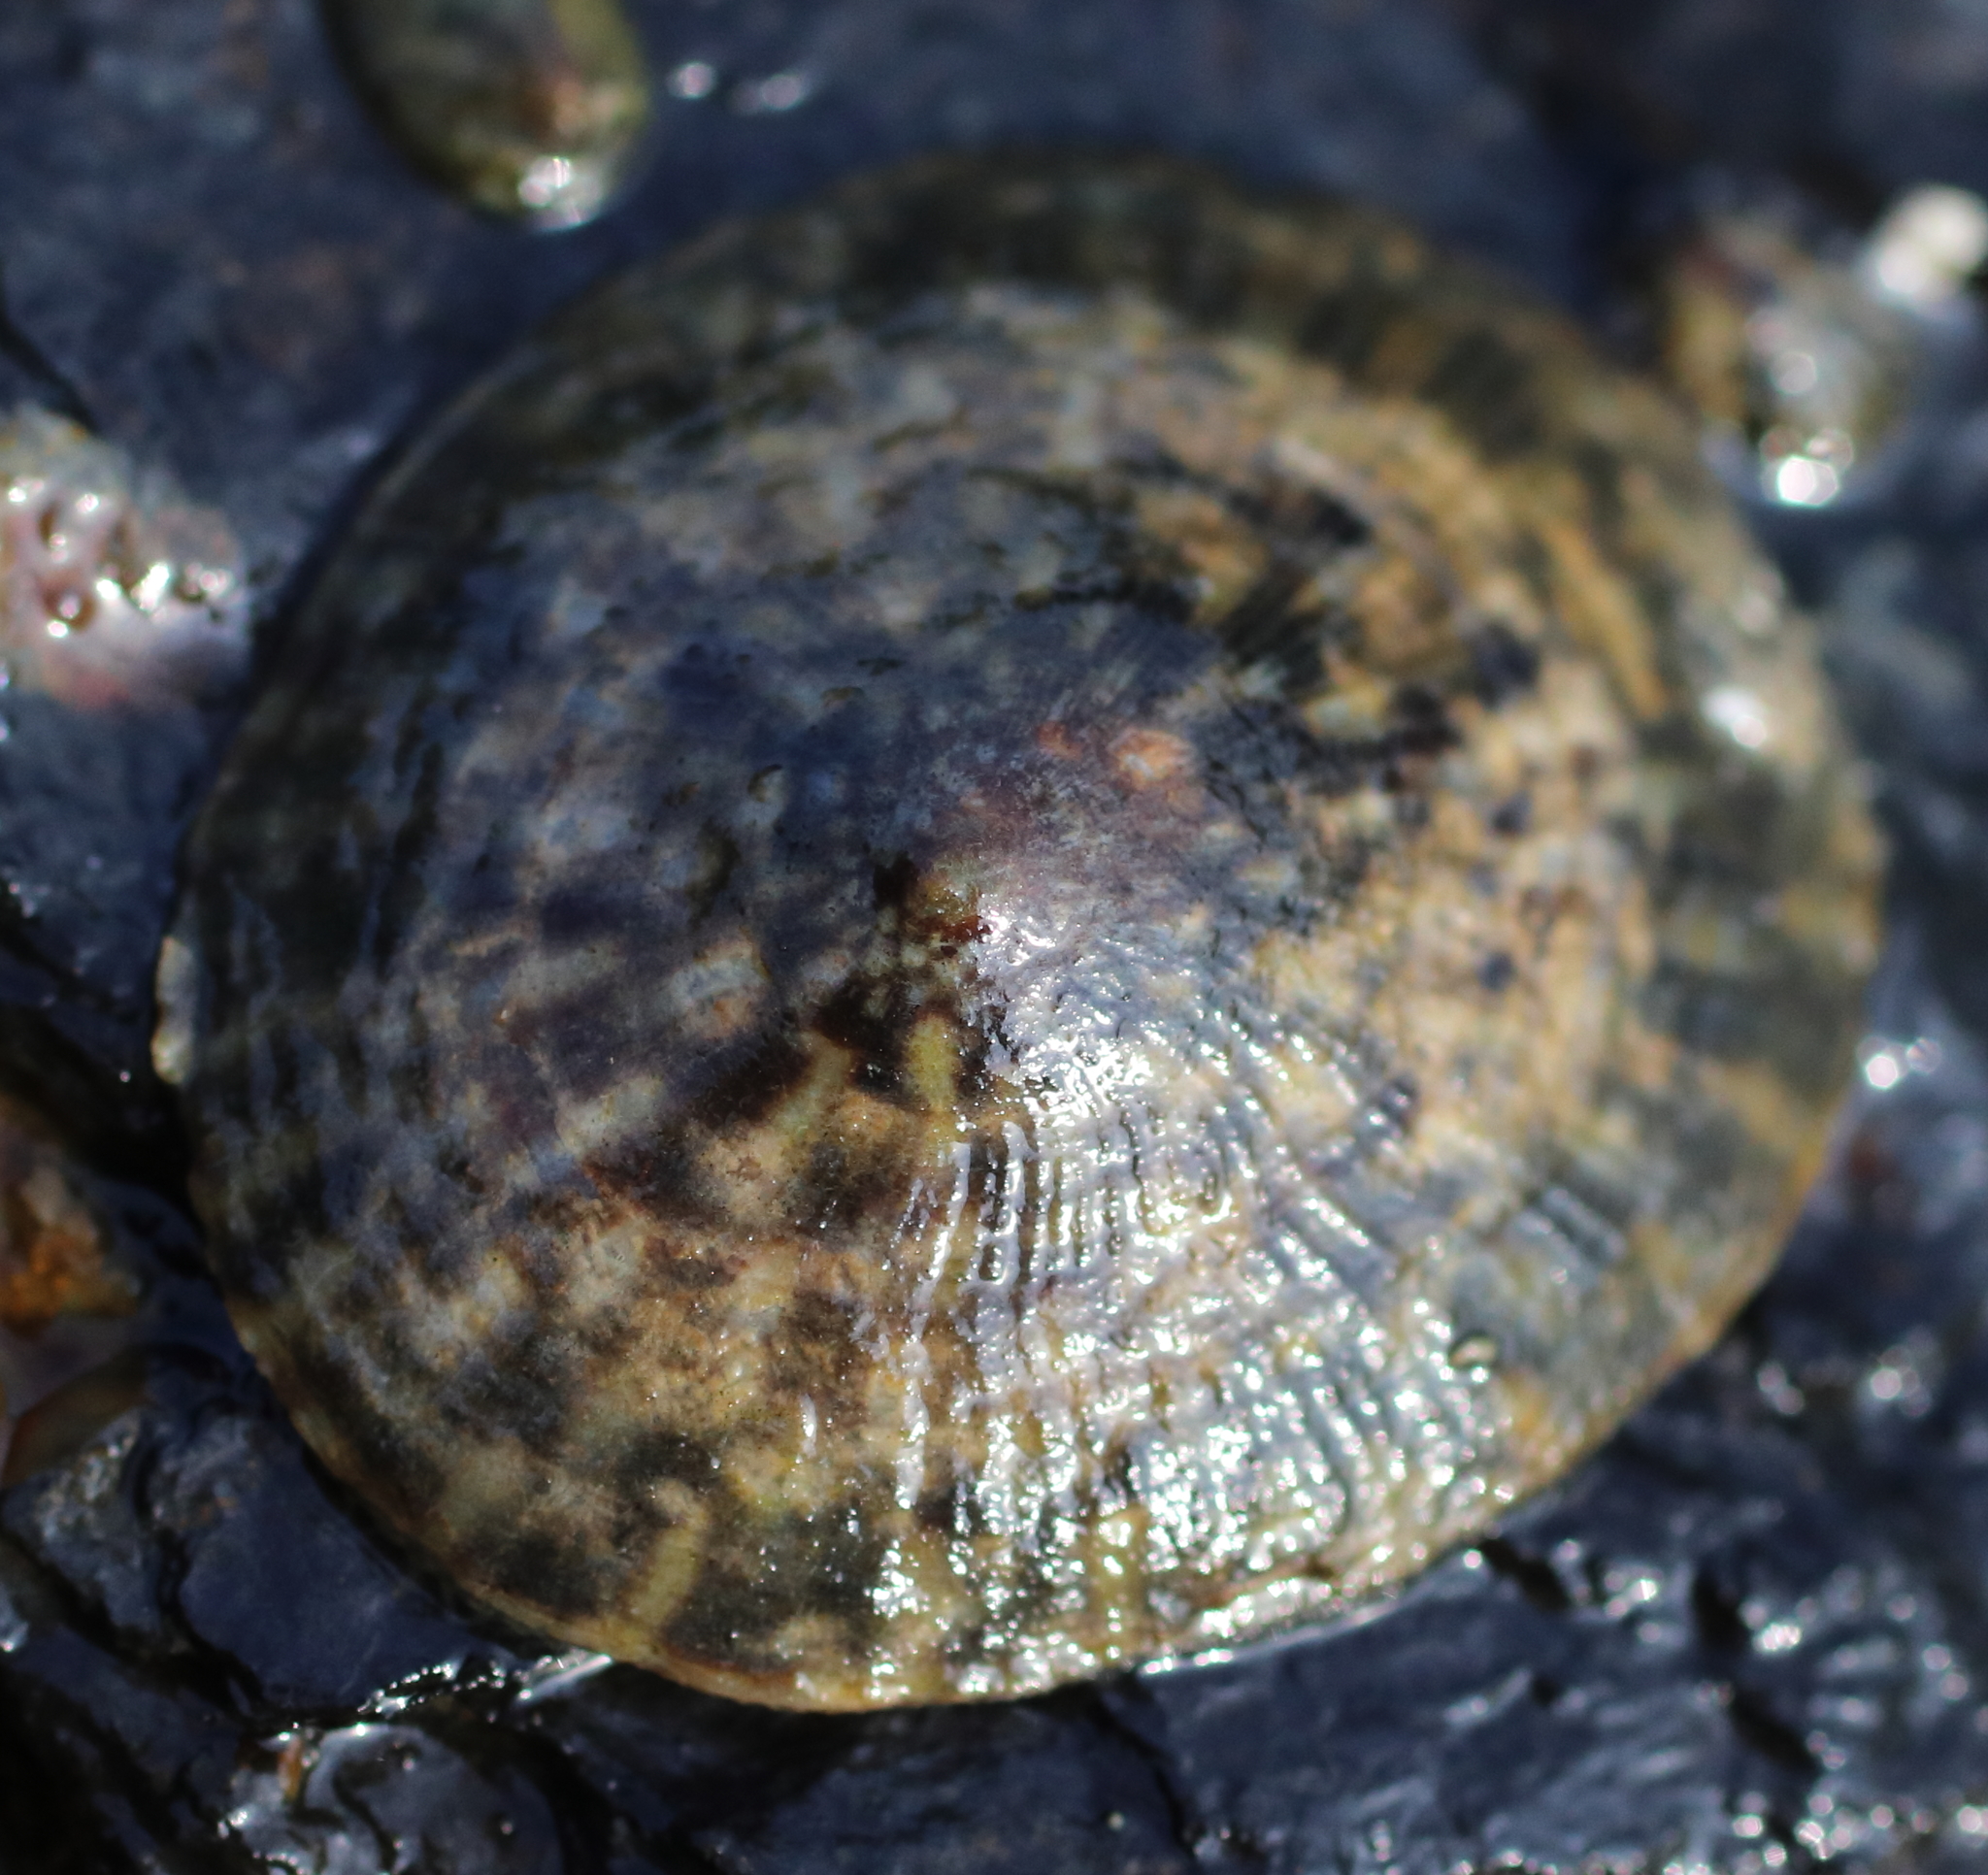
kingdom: Animalia
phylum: Mollusca
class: Gastropoda
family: Lottiidae
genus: Lottia
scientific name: Lottia scutum
